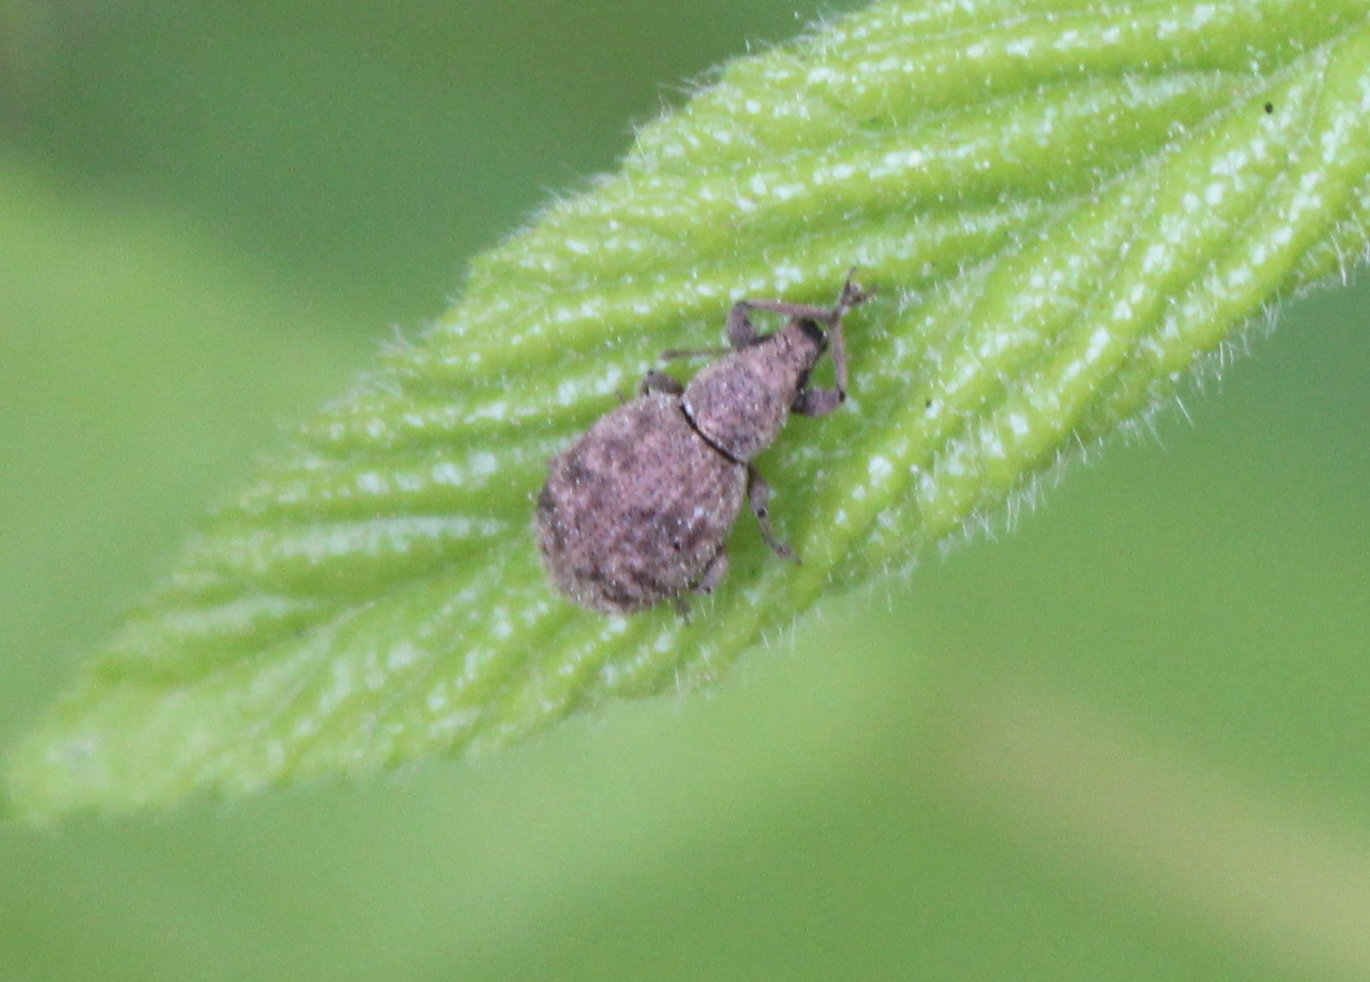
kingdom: Animalia
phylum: Arthropoda
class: Insecta
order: Coleoptera
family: Curculionidae
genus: Sciaphilus
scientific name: Sciaphilus asperatus
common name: Weevil
